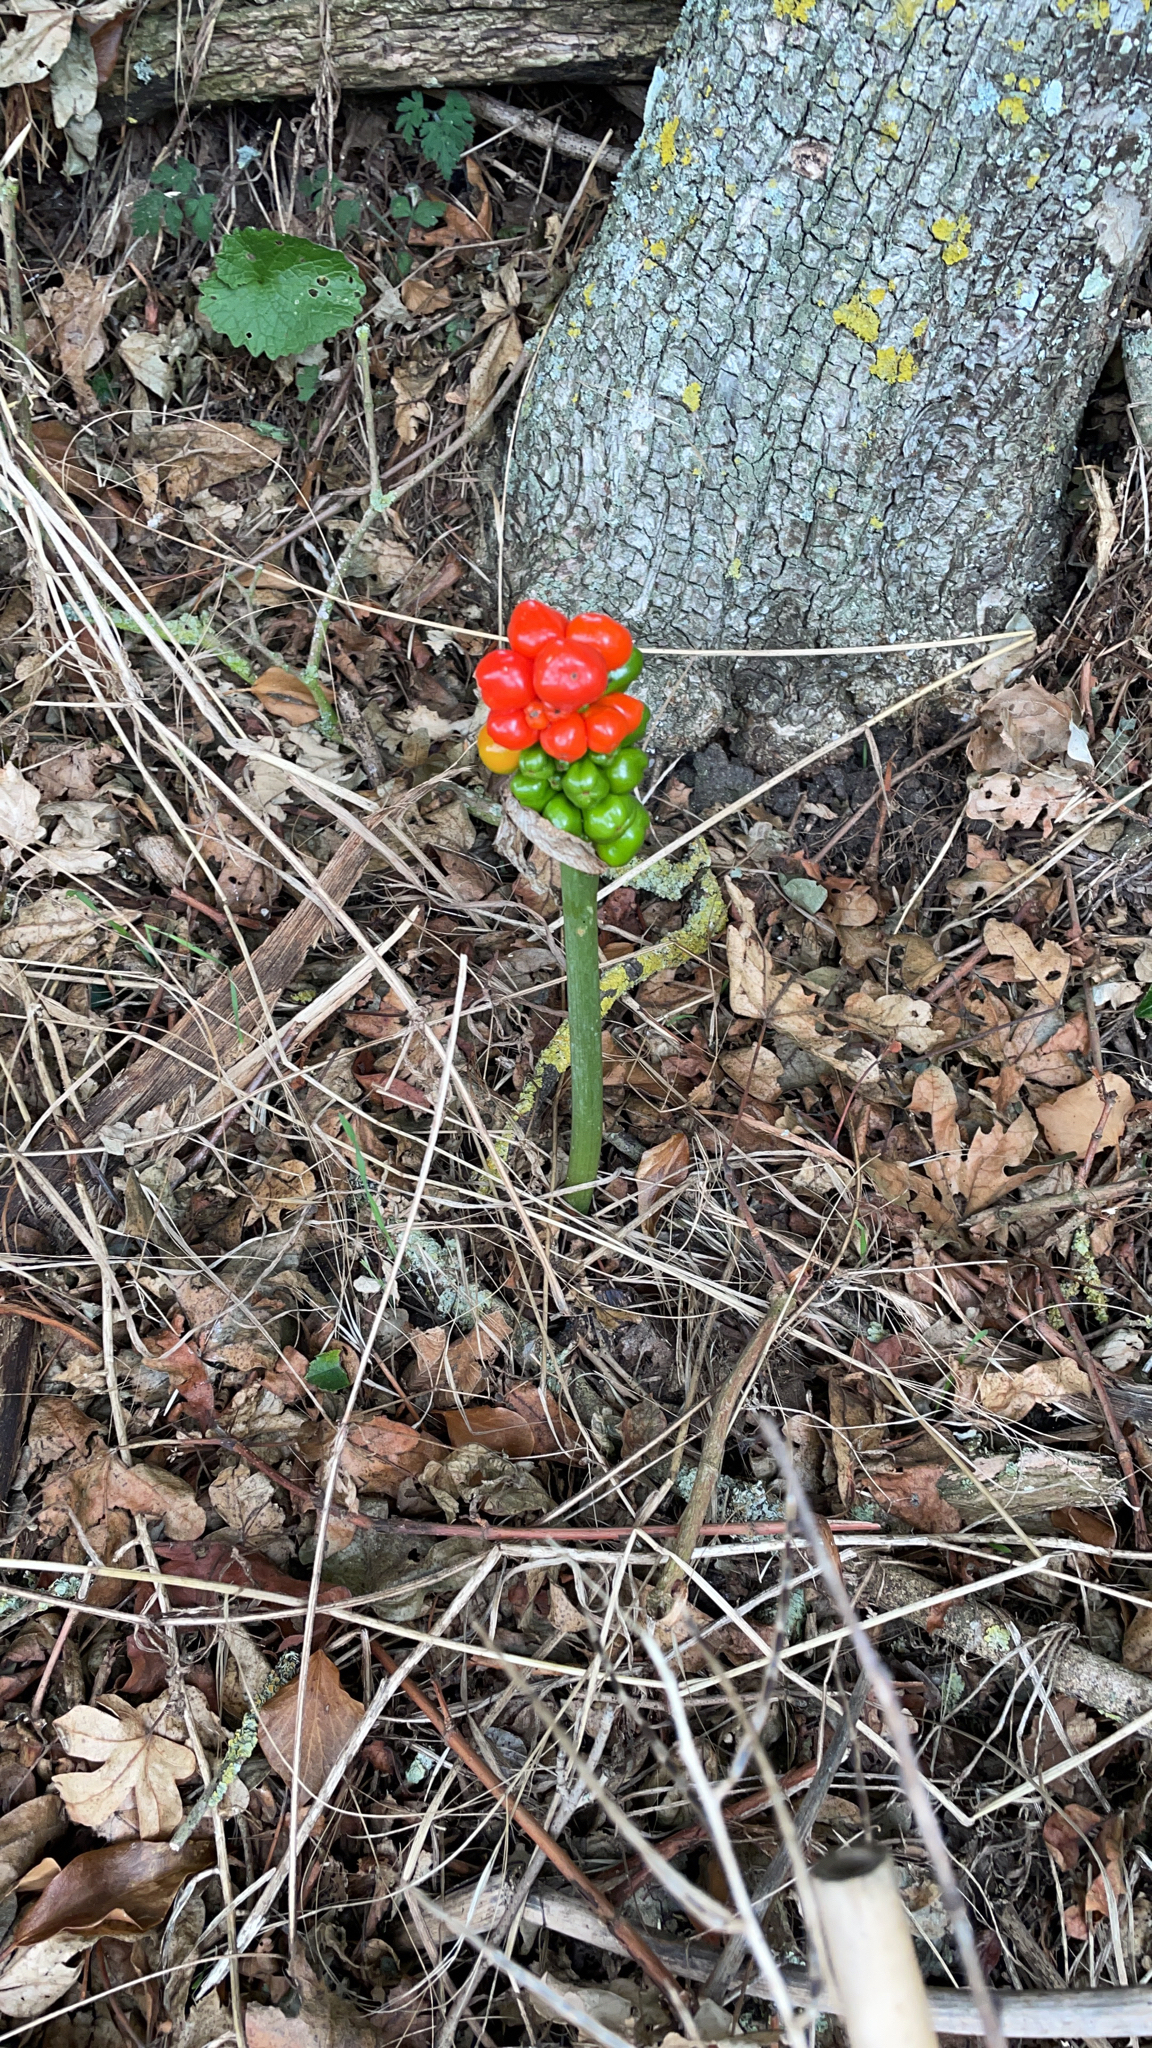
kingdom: Plantae
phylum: Tracheophyta
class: Liliopsida
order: Alismatales
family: Araceae
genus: Arum
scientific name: Arum maculatum
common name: Lords-and-ladies
